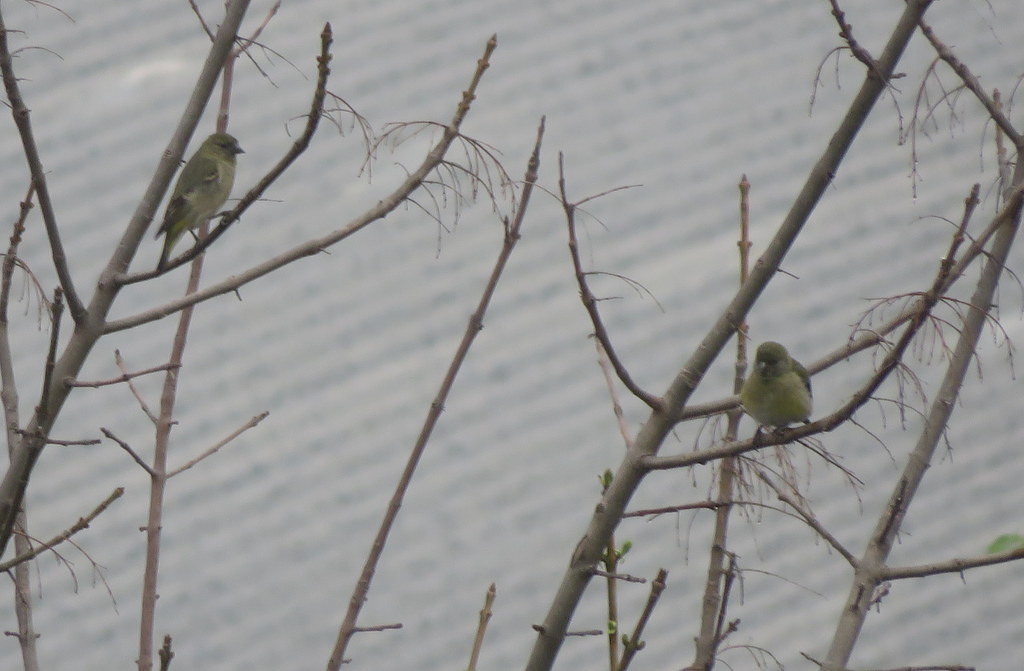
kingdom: Animalia
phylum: Chordata
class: Aves
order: Passeriformes
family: Fringillidae
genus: Spinus
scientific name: Spinus magellanicus
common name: Hooded siskin
